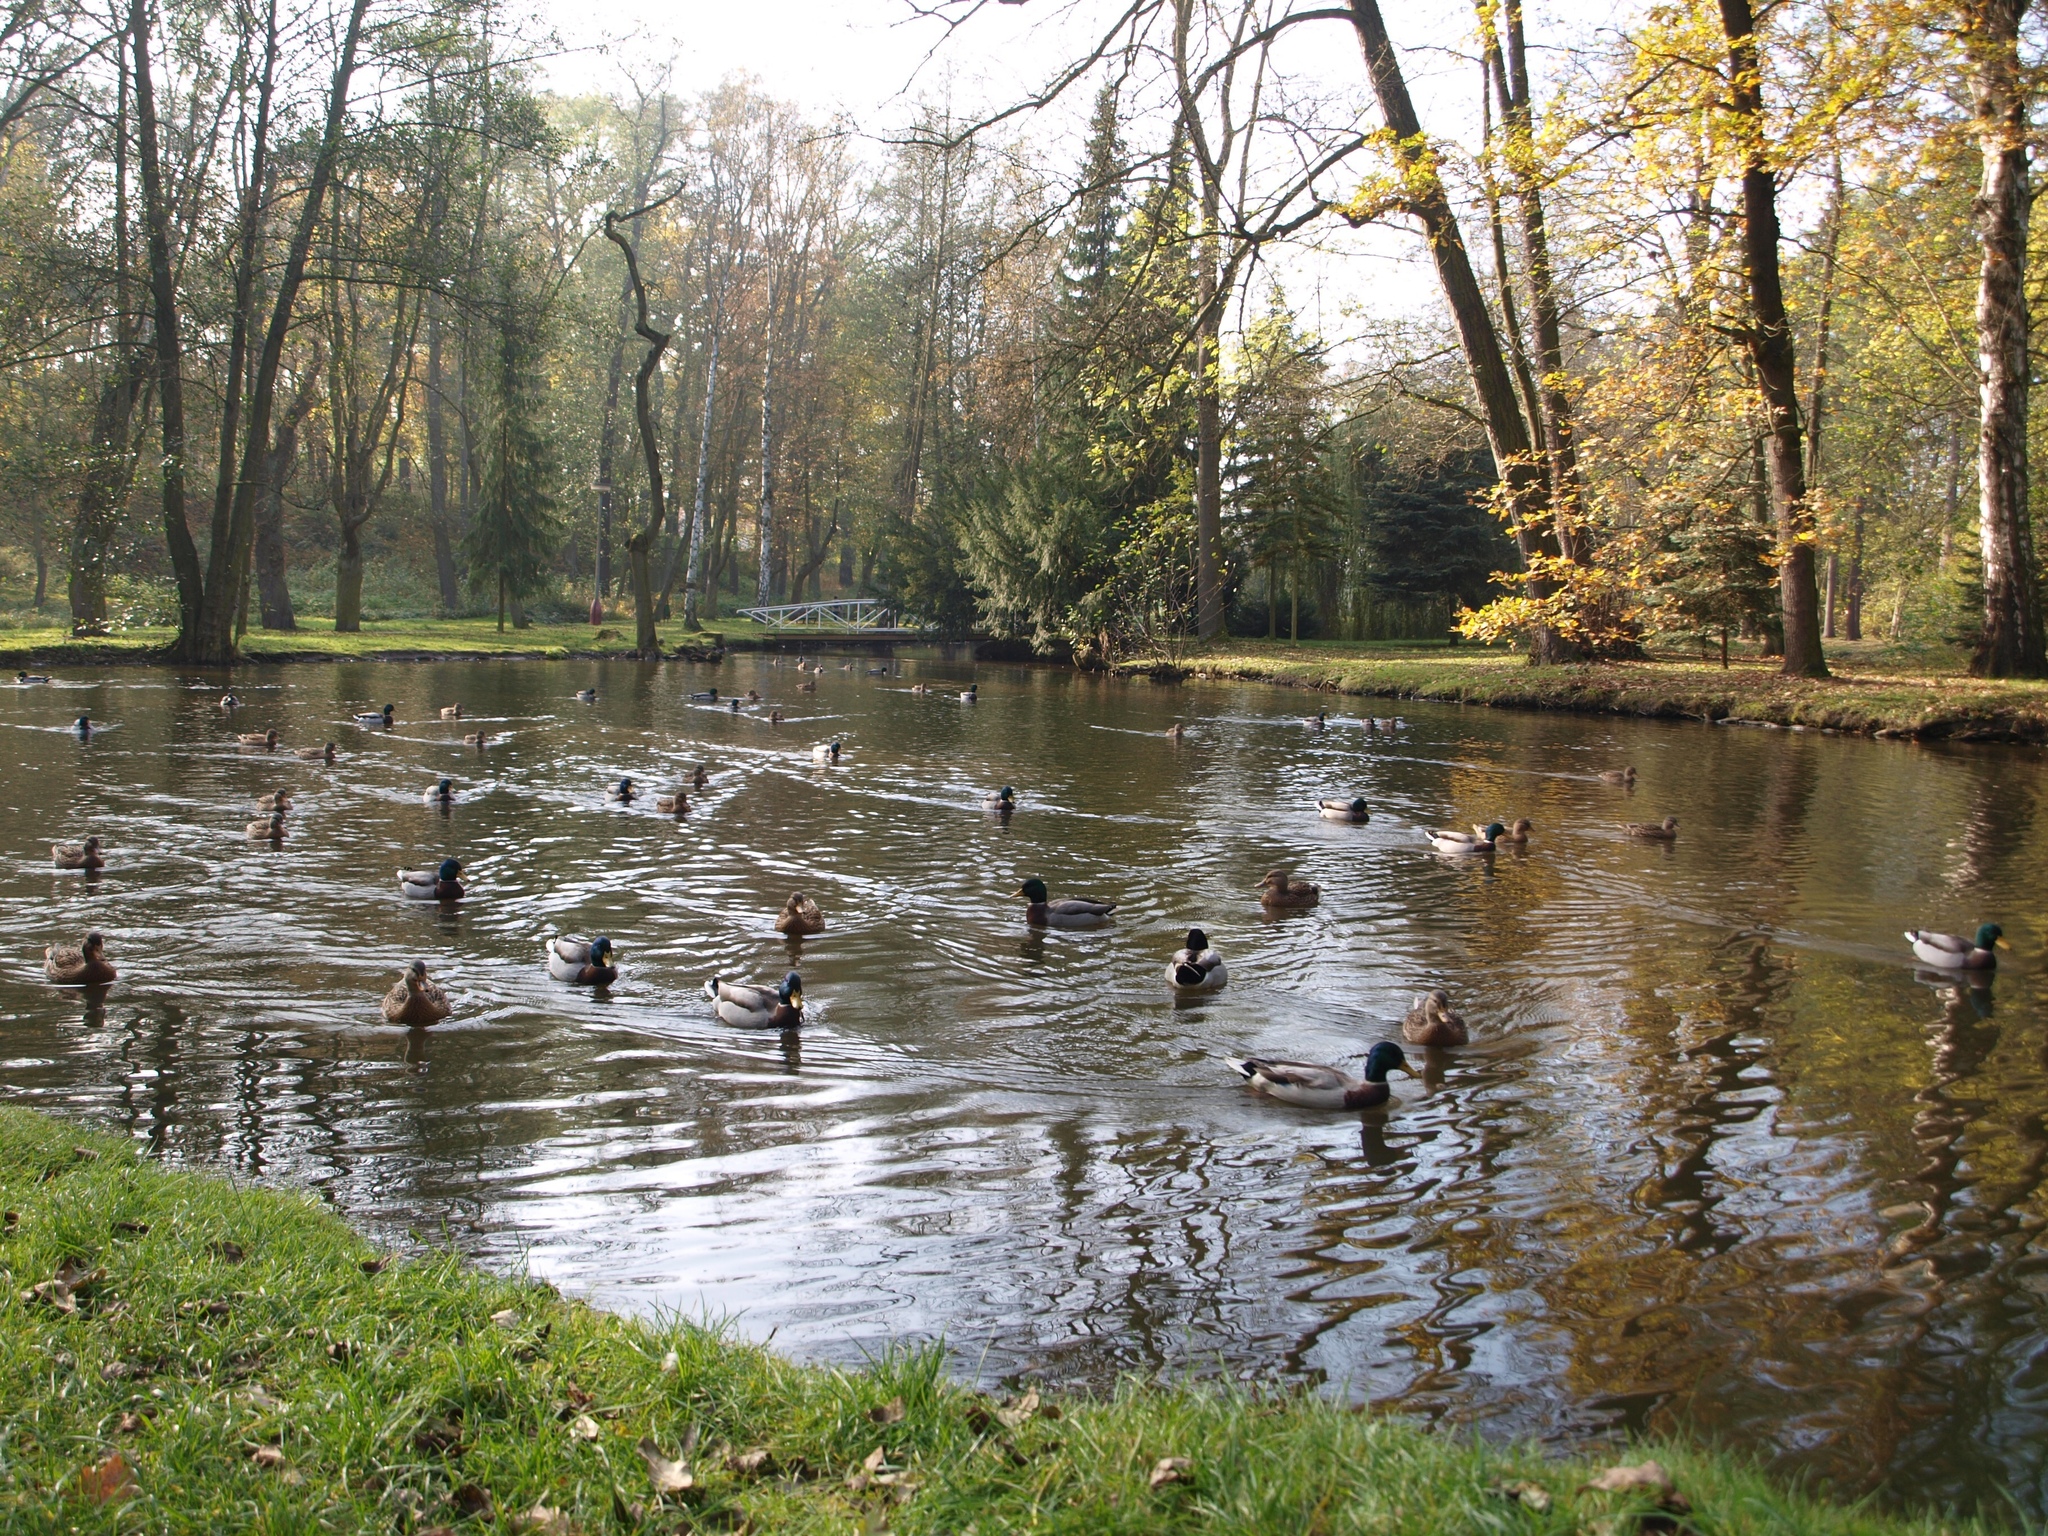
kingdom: Animalia
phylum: Chordata
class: Aves
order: Anseriformes
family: Anatidae
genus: Anas
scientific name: Anas platyrhynchos
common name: Mallard
